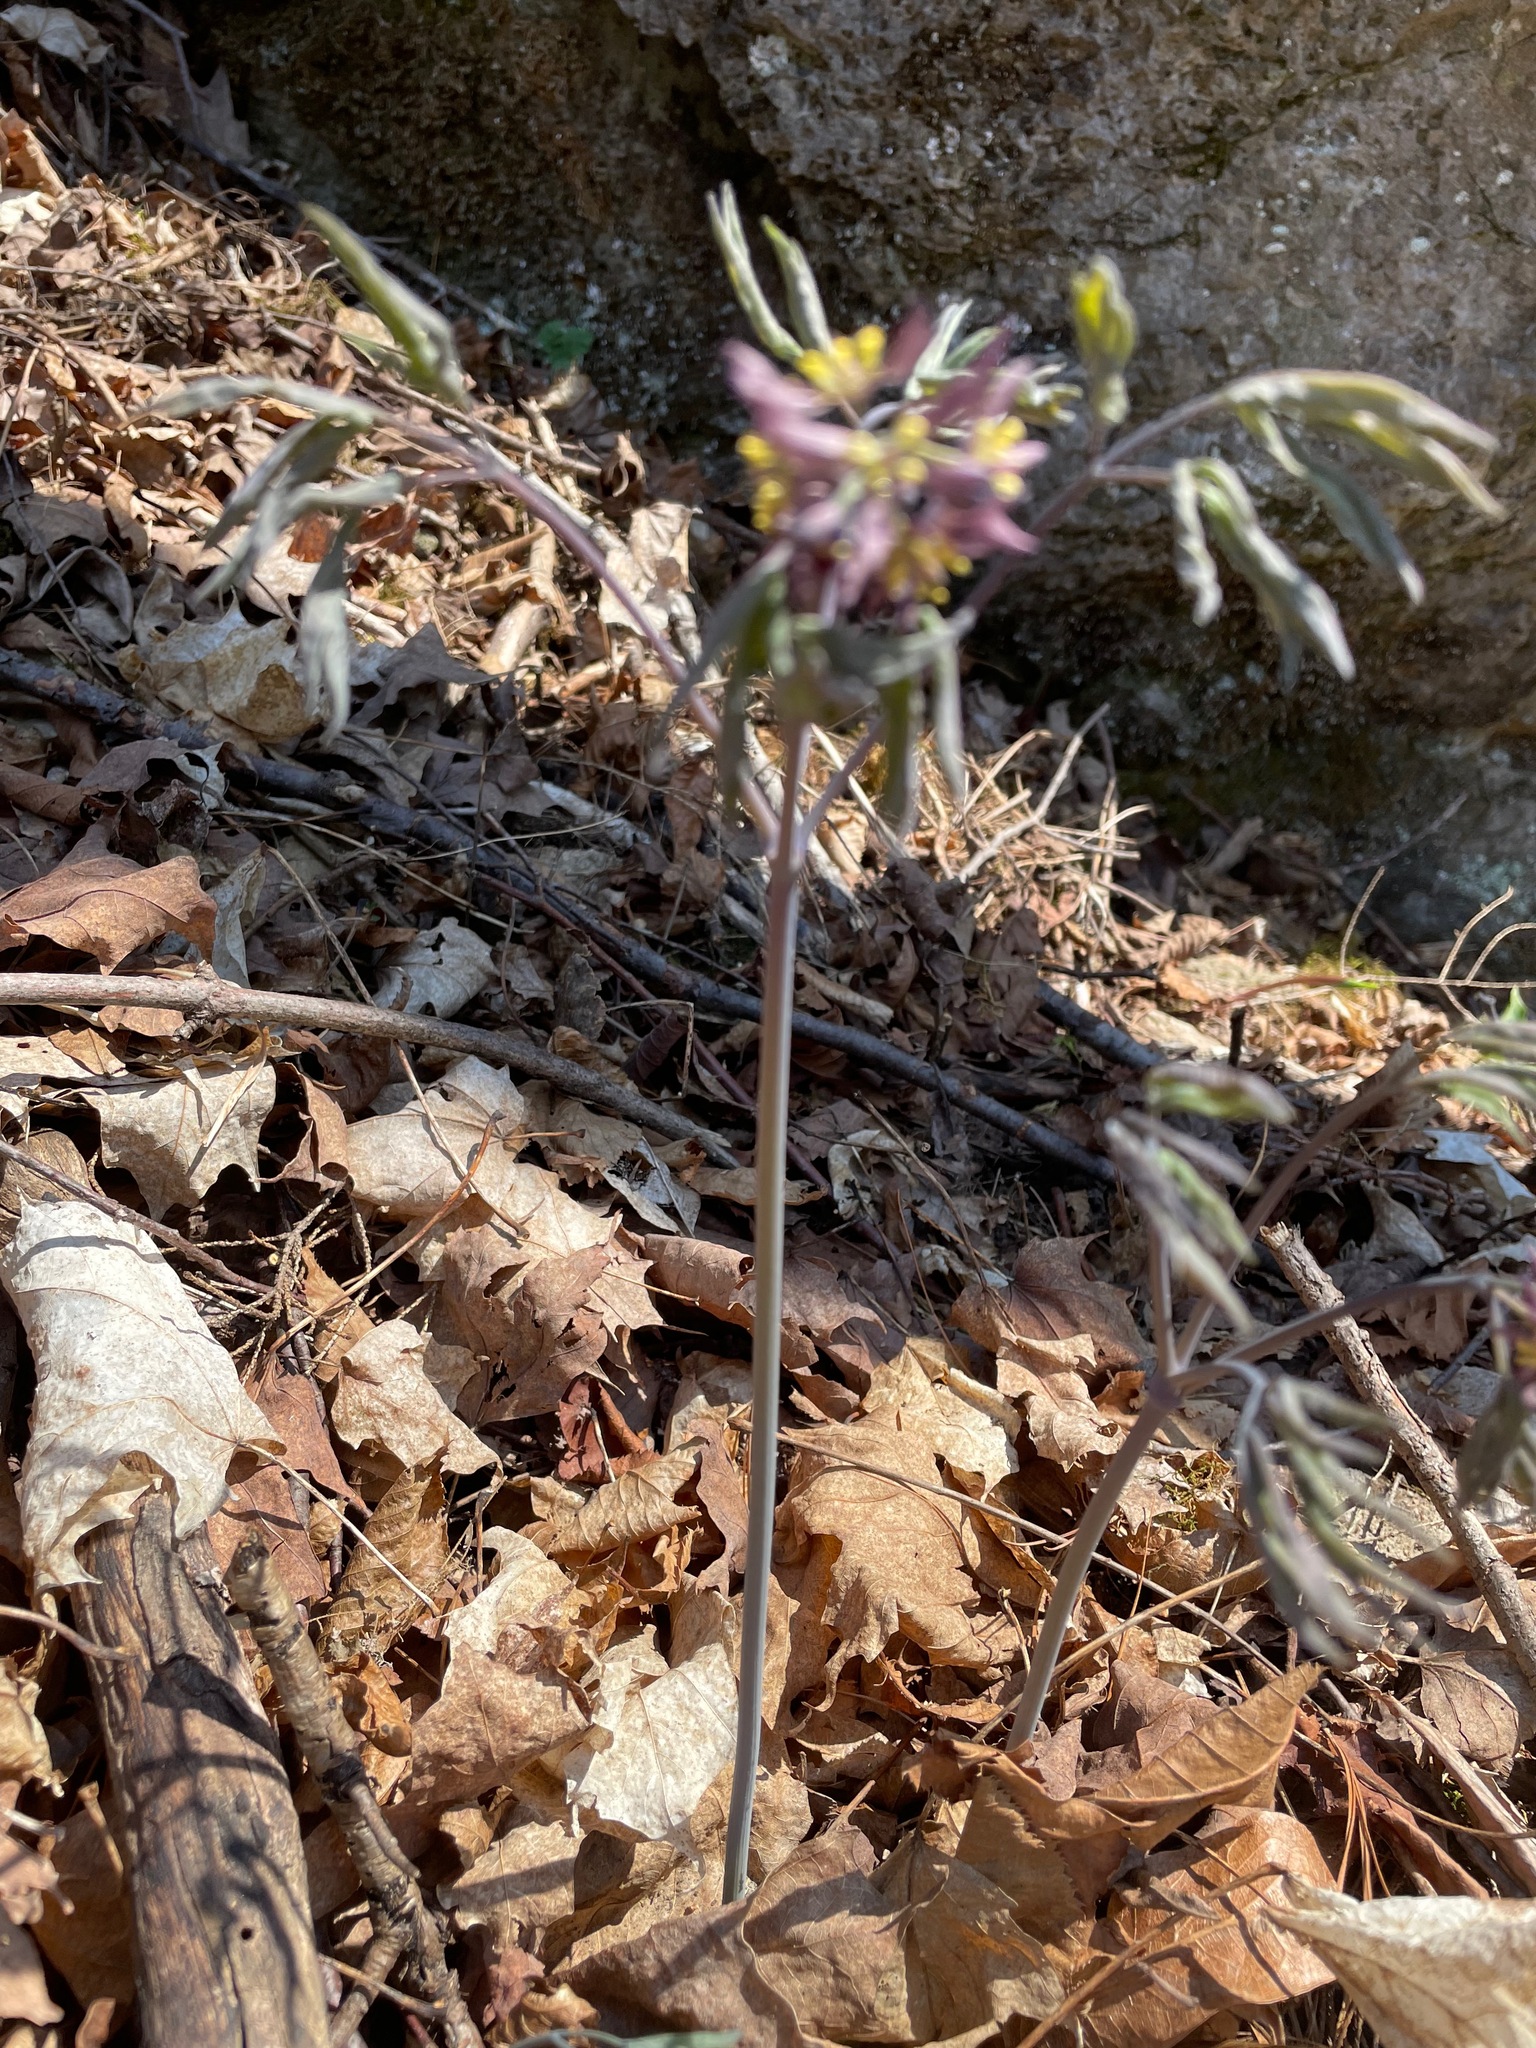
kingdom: Plantae
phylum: Tracheophyta
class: Magnoliopsida
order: Ranunculales
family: Berberidaceae
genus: Caulophyllum
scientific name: Caulophyllum giganteum
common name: Blue cohosh
